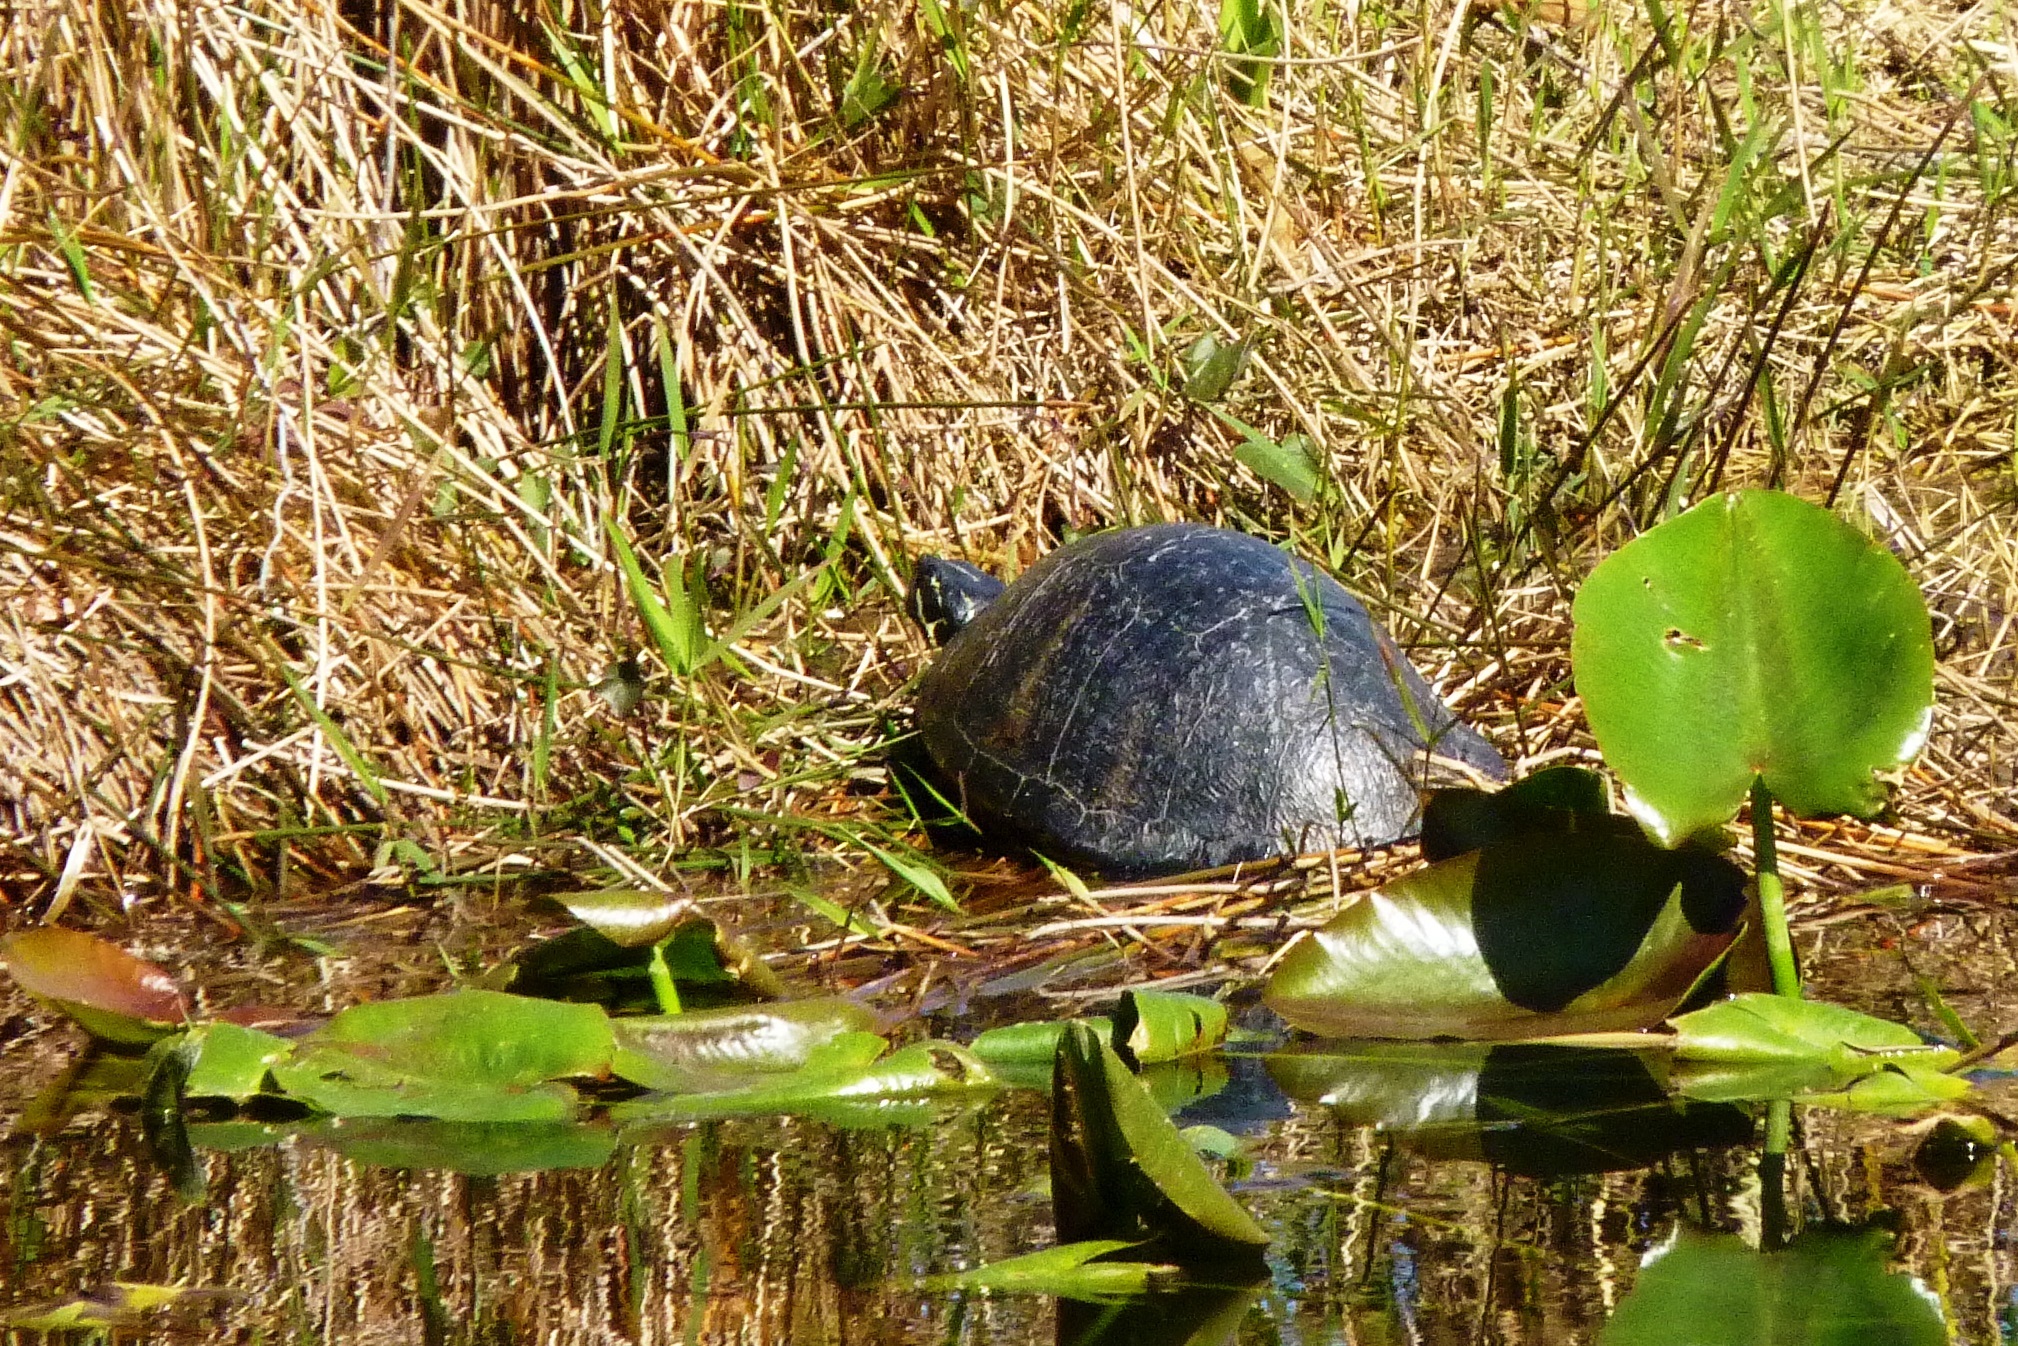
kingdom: Animalia
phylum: Chordata
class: Testudines
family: Emydidae
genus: Pseudemys
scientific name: Pseudemys nelsoni
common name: Florida red-bellied turtle
